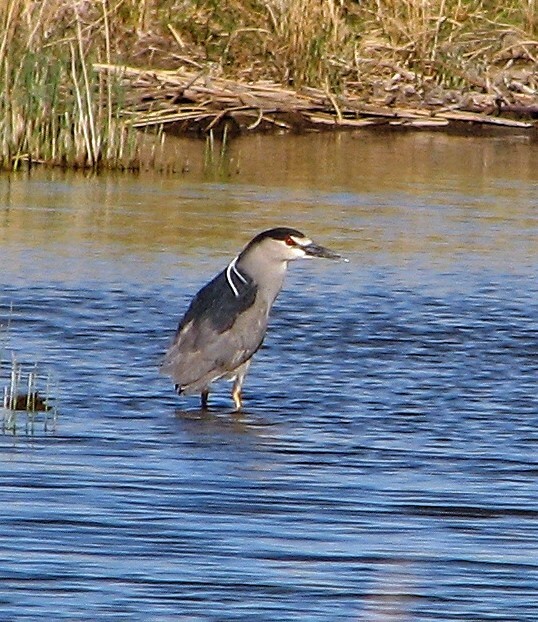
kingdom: Animalia
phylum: Chordata
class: Aves
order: Pelecaniformes
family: Ardeidae
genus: Nycticorax
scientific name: Nycticorax nycticorax
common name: Black-crowned night heron
